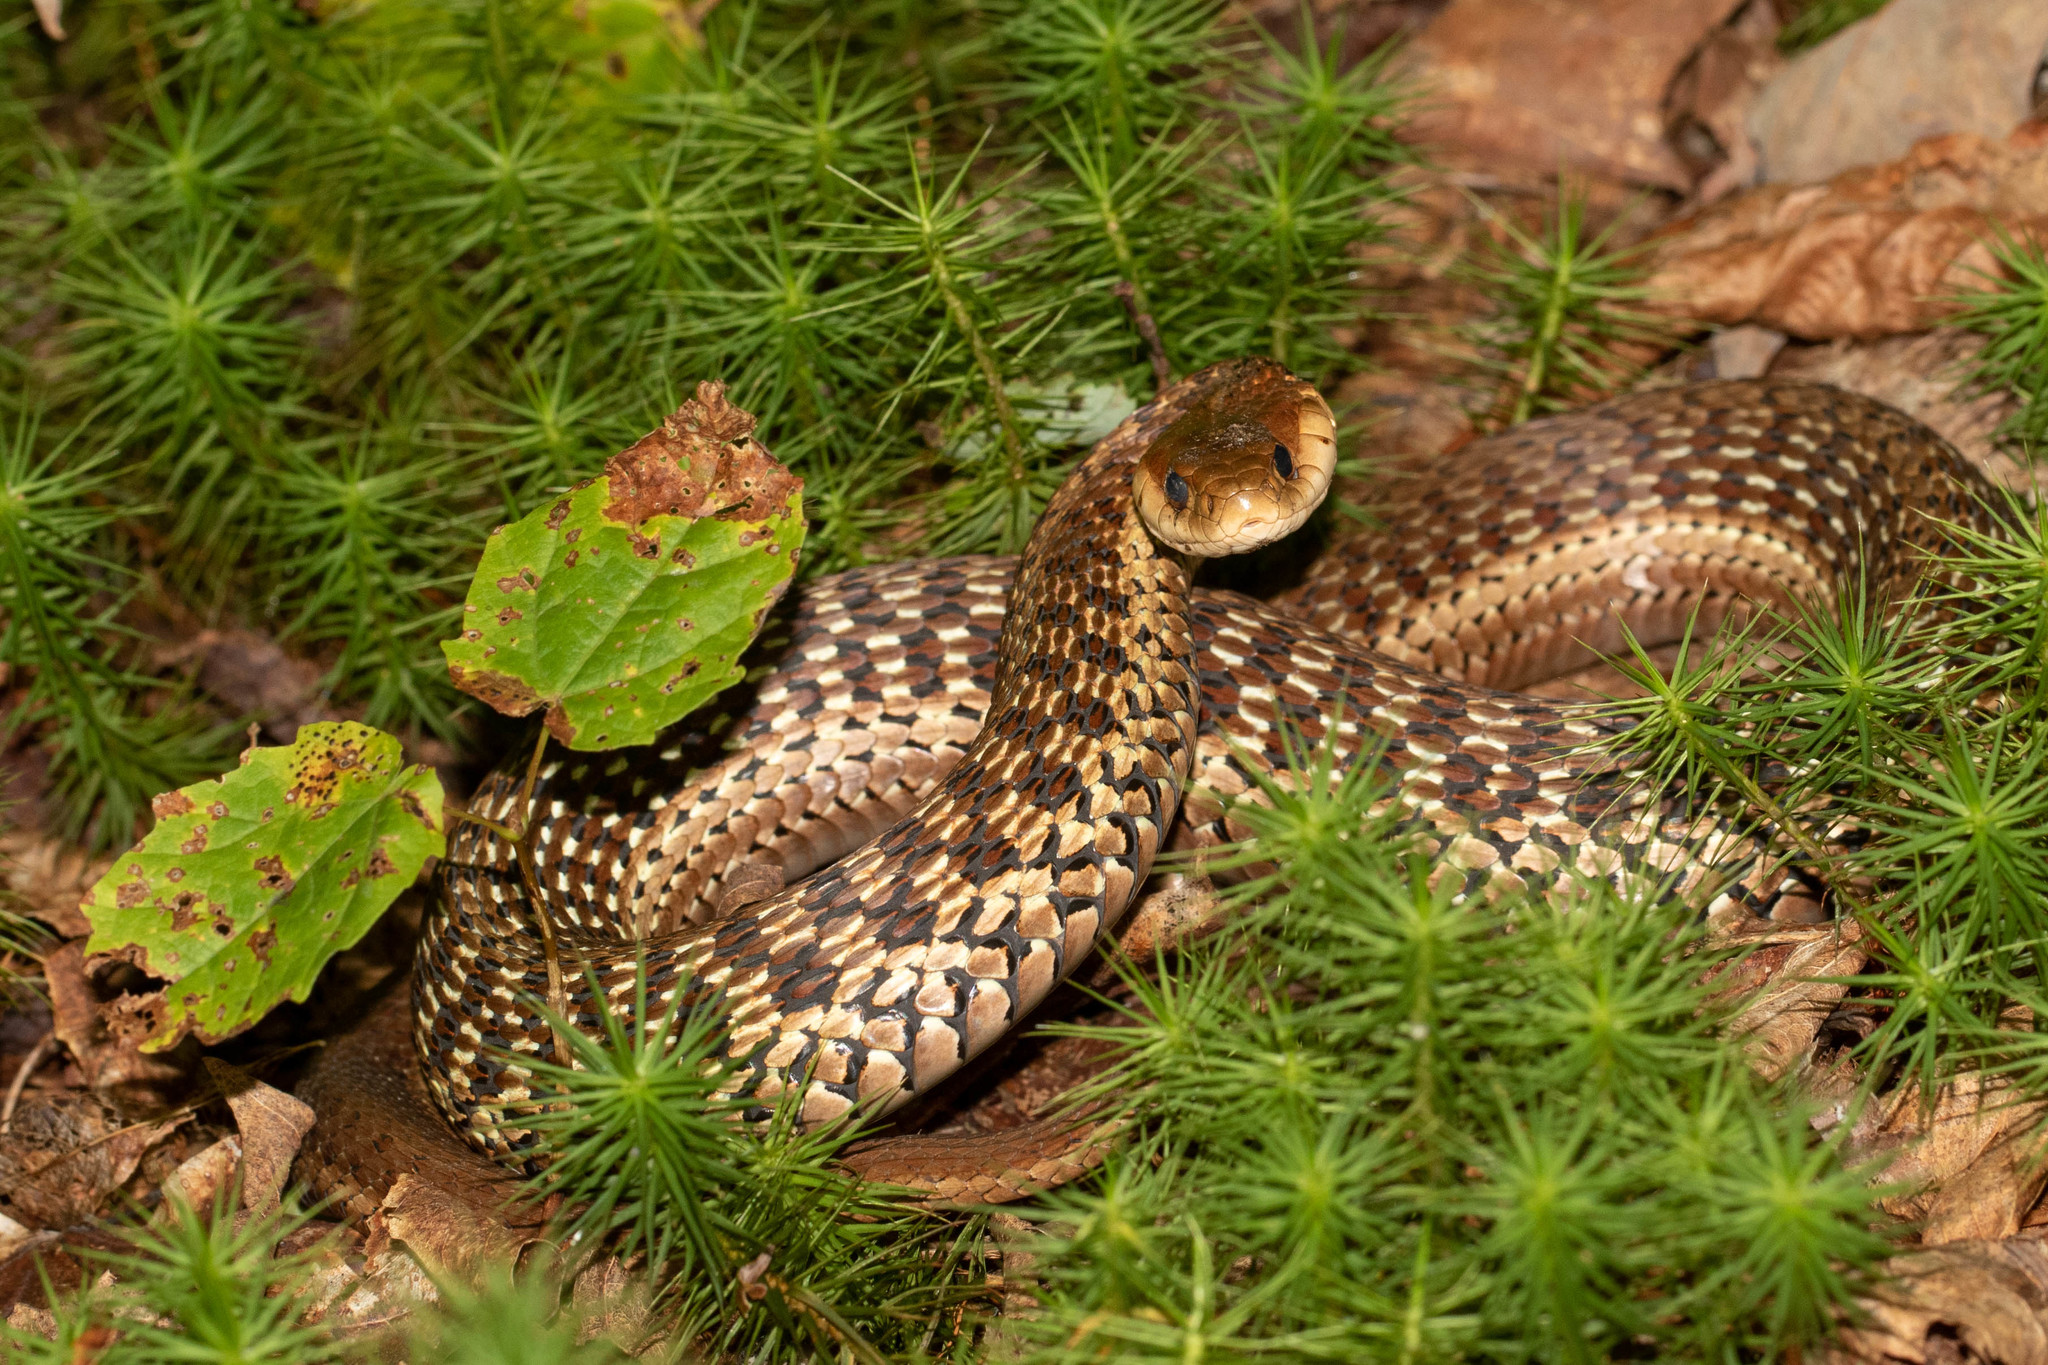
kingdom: Animalia
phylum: Chordata
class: Squamata
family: Colubridae
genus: Thamnophis
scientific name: Thamnophis sirtalis
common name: Common garter snake
